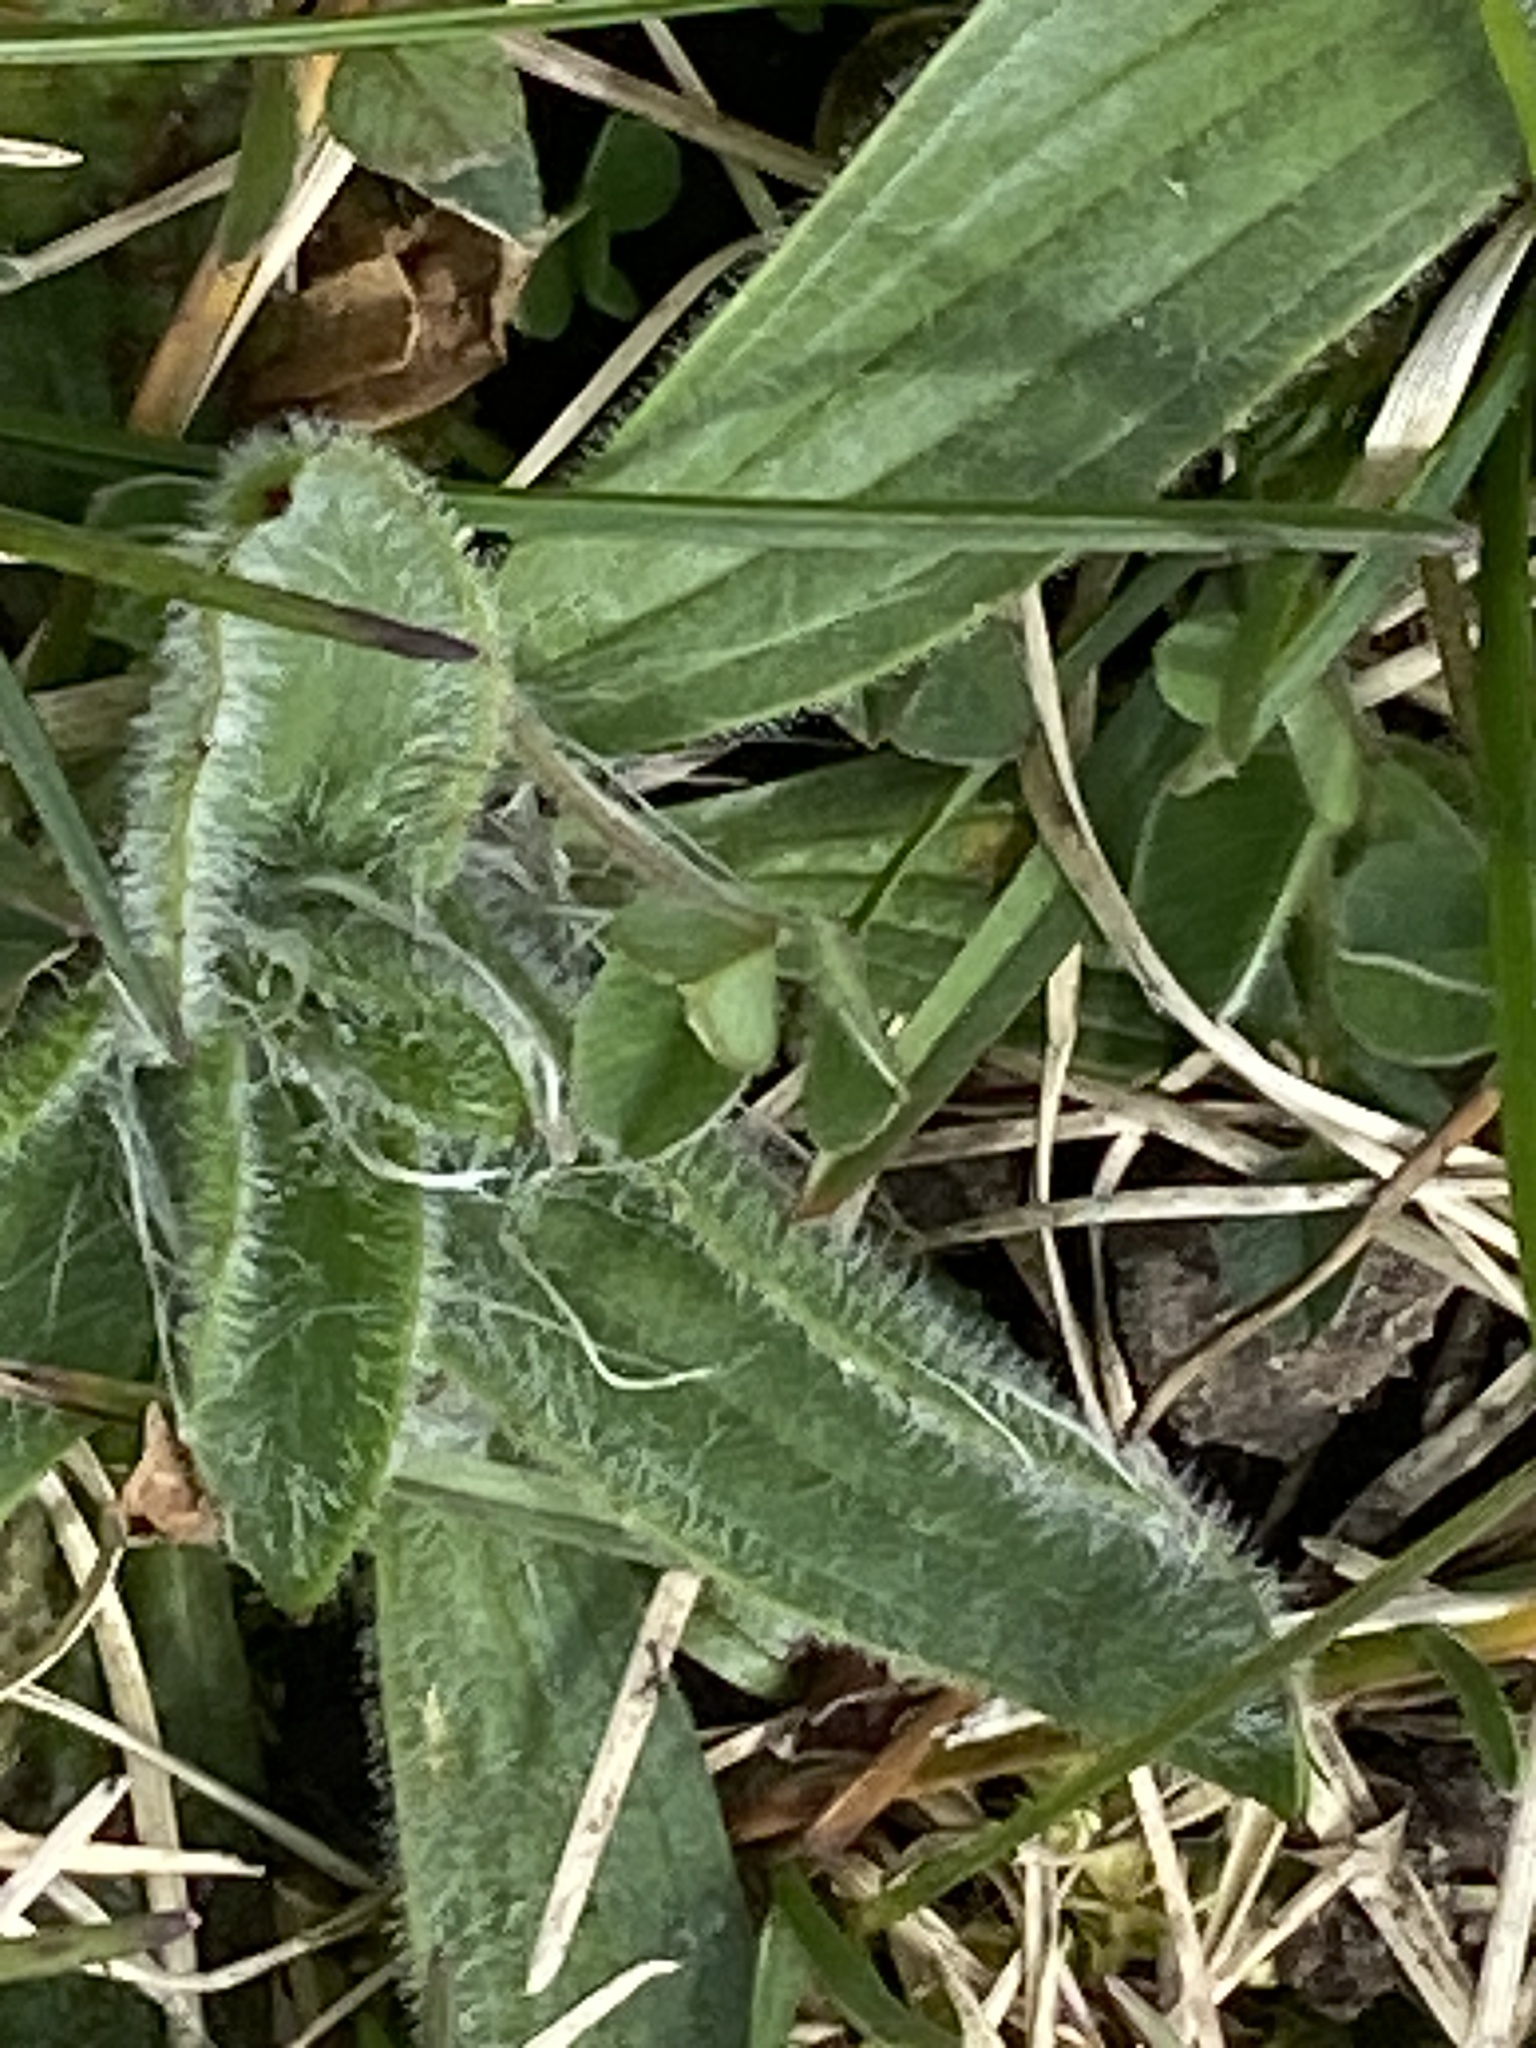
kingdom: Plantae
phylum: Tracheophyta
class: Magnoliopsida
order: Lamiales
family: Plantaginaceae
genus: Plantago
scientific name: Plantago lanceolata
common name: Ribwort plantain
